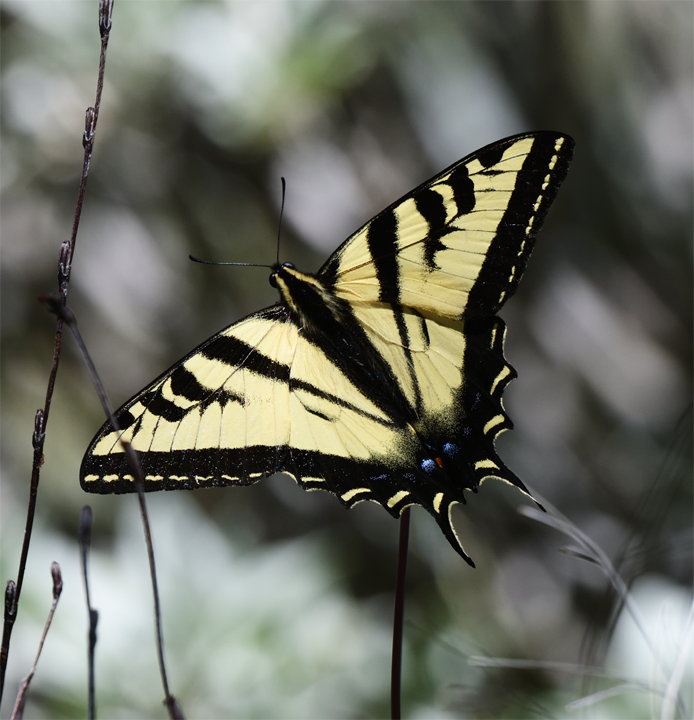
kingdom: Animalia
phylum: Arthropoda
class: Insecta
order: Lepidoptera
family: Papilionidae
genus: Papilio
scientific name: Papilio rutulus
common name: Western tiger swallowtail
